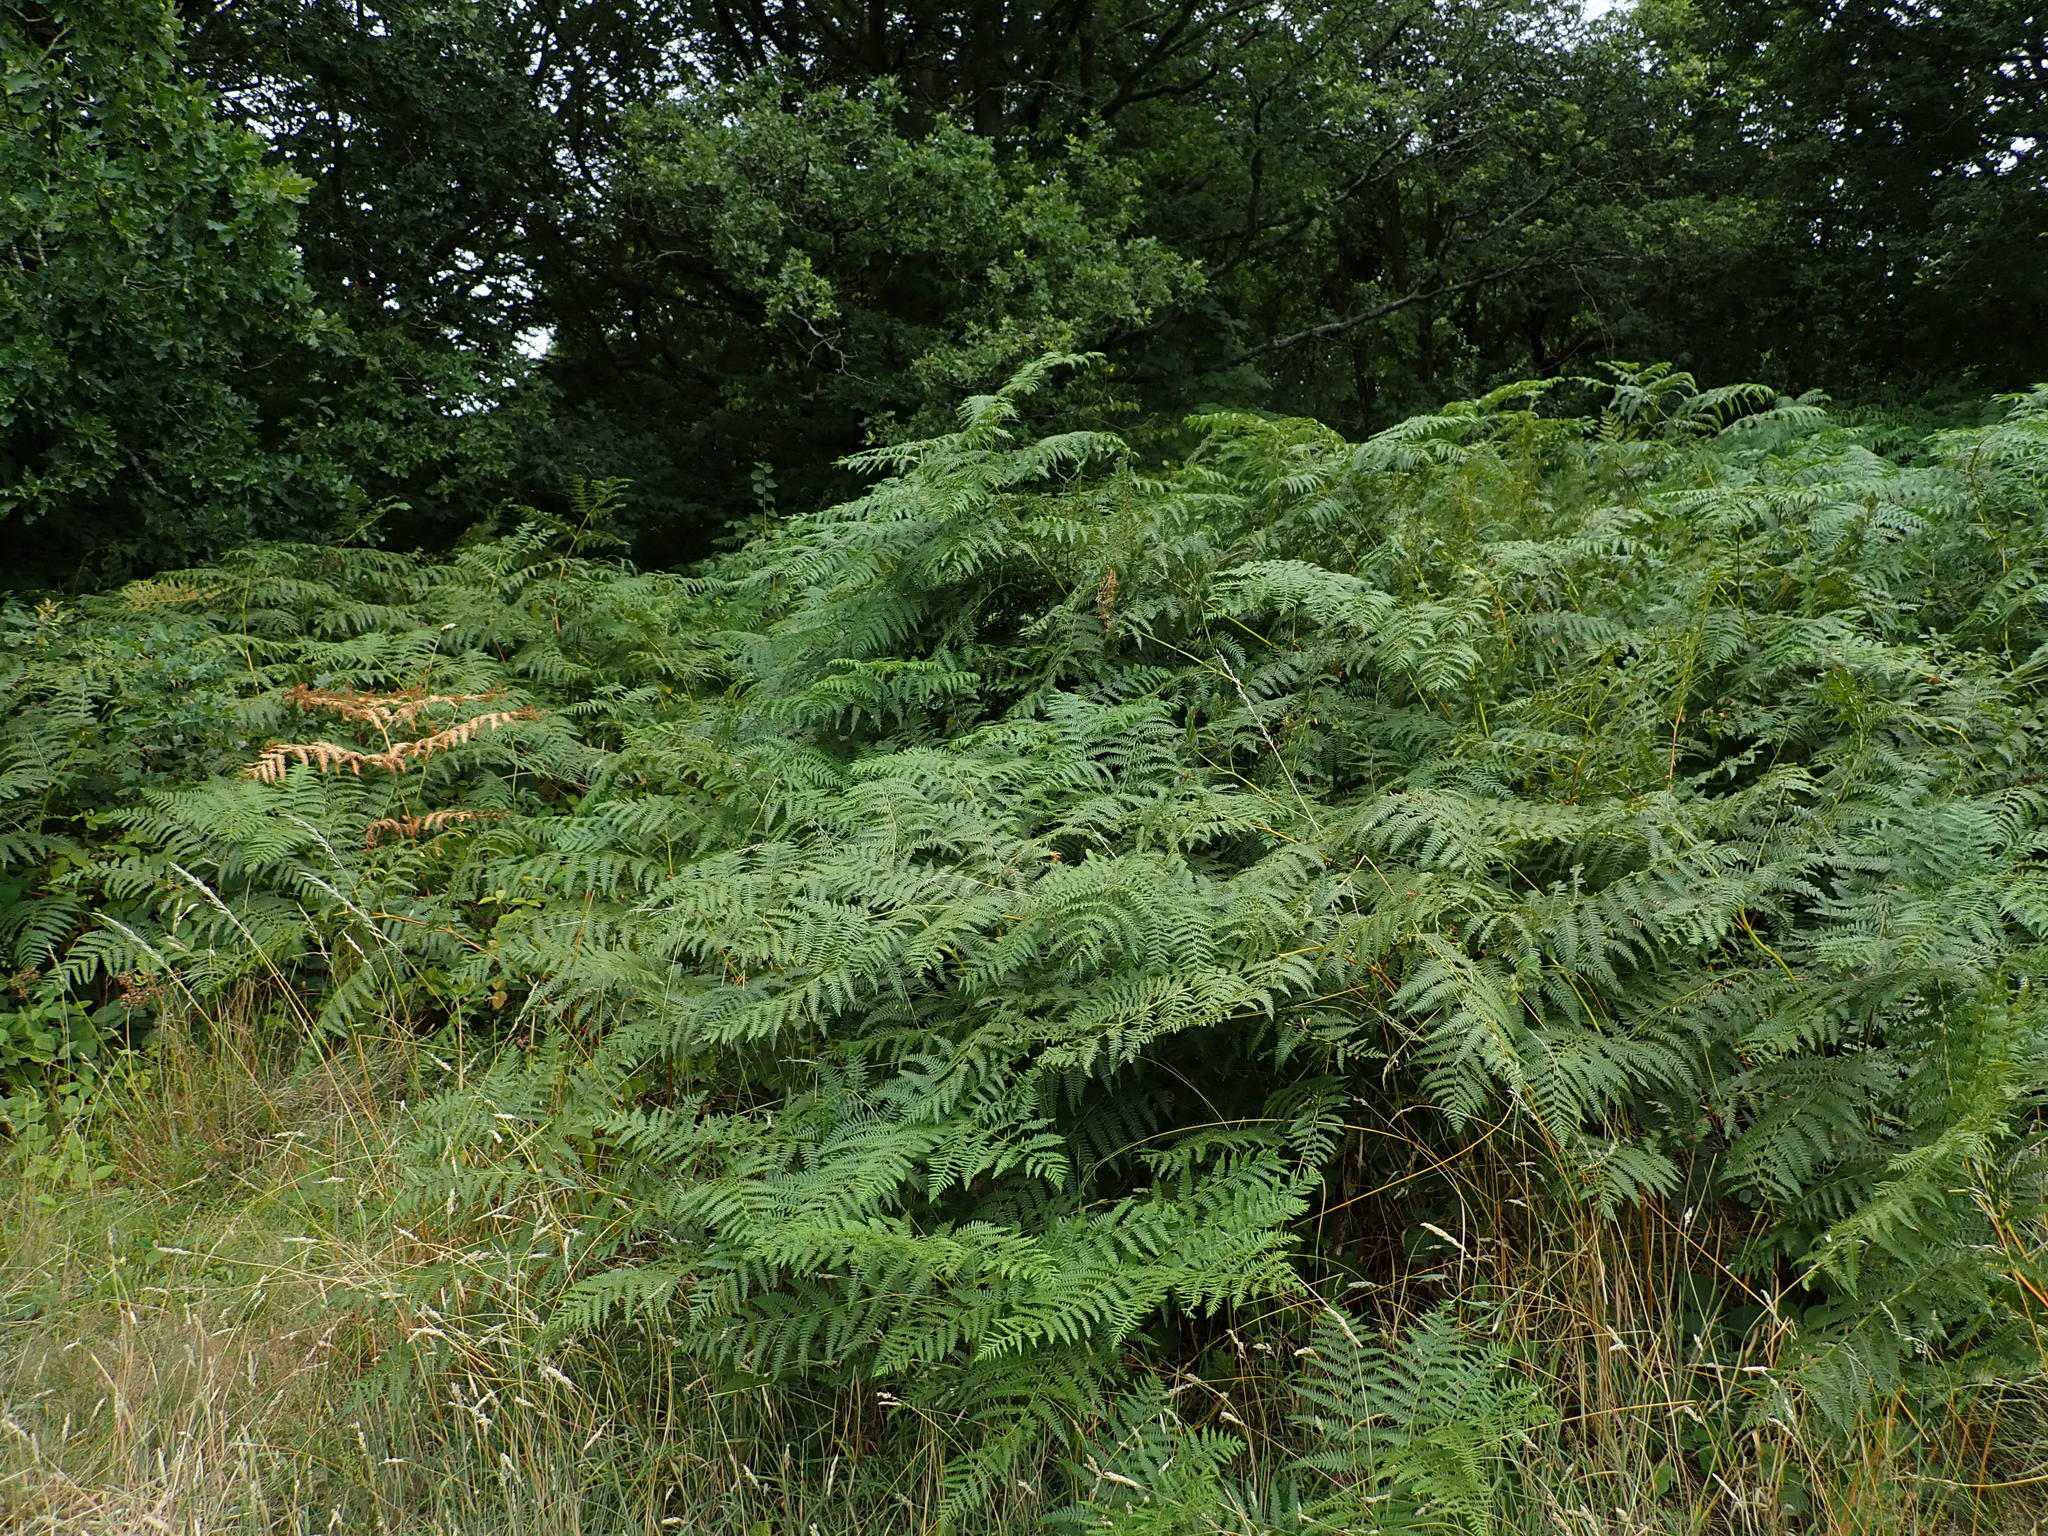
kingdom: Plantae
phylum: Tracheophyta
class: Polypodiopsida
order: Polypodiales
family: Dennstaedtiaceae
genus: Pteridium
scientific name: Pteridium aquilinum
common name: Bracken
